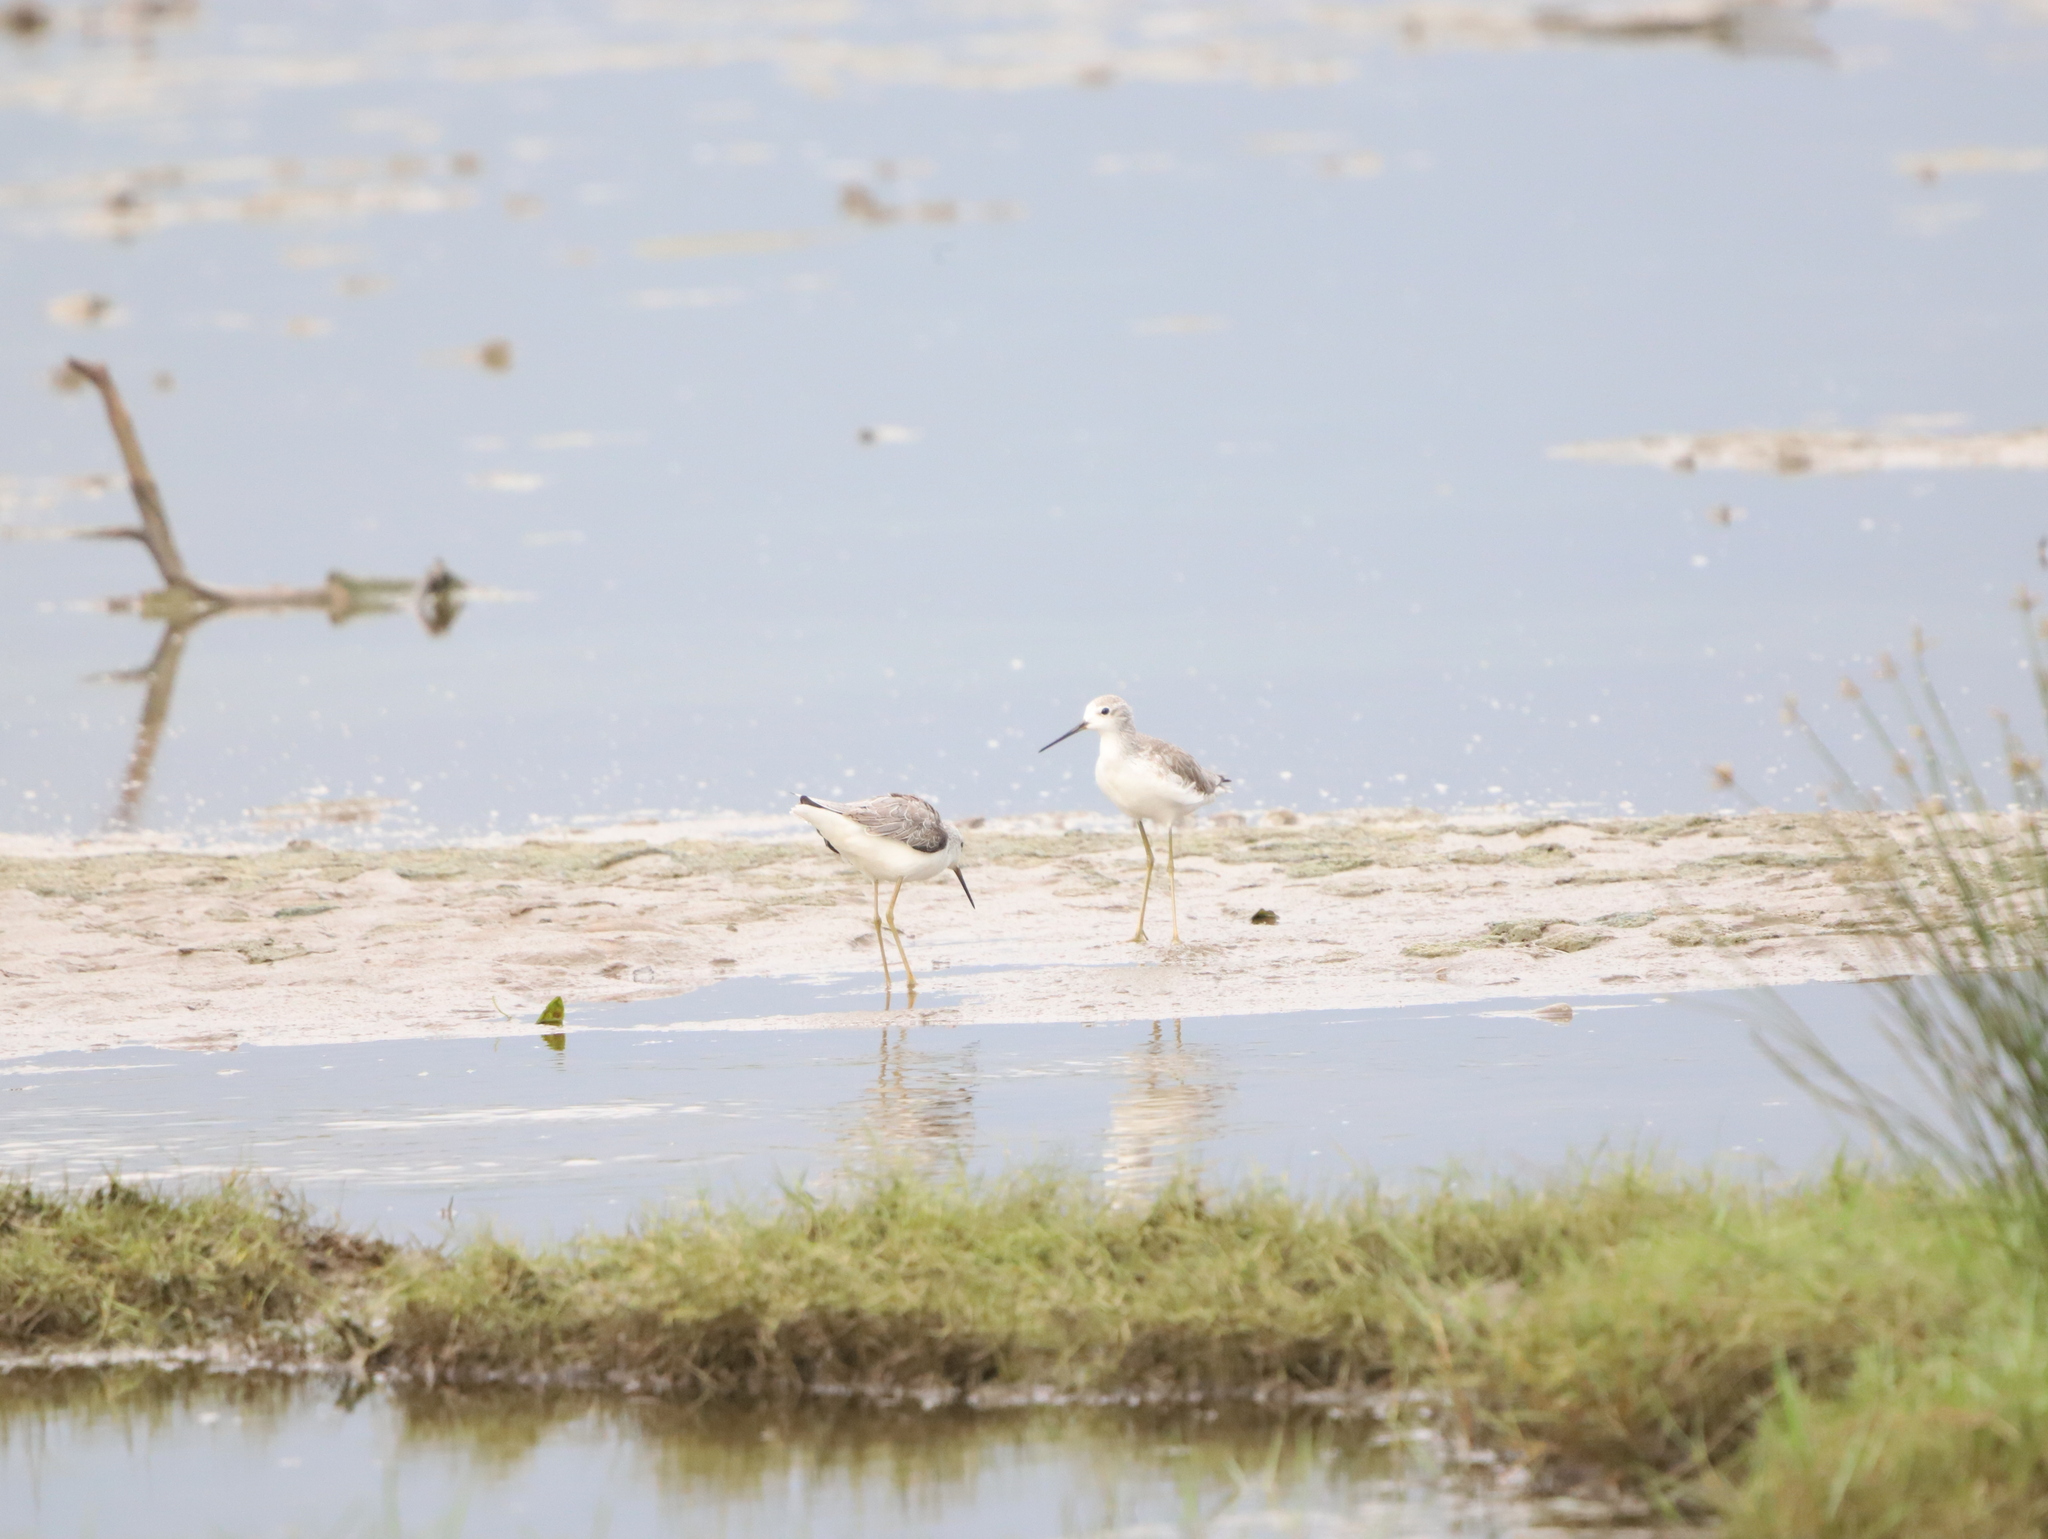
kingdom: Animalia
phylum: Chordata
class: Aves
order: Charadriiformes
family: Scolopacidae
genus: Tringa
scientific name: Tringa stagnatilis
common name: Marsh sandpiper
